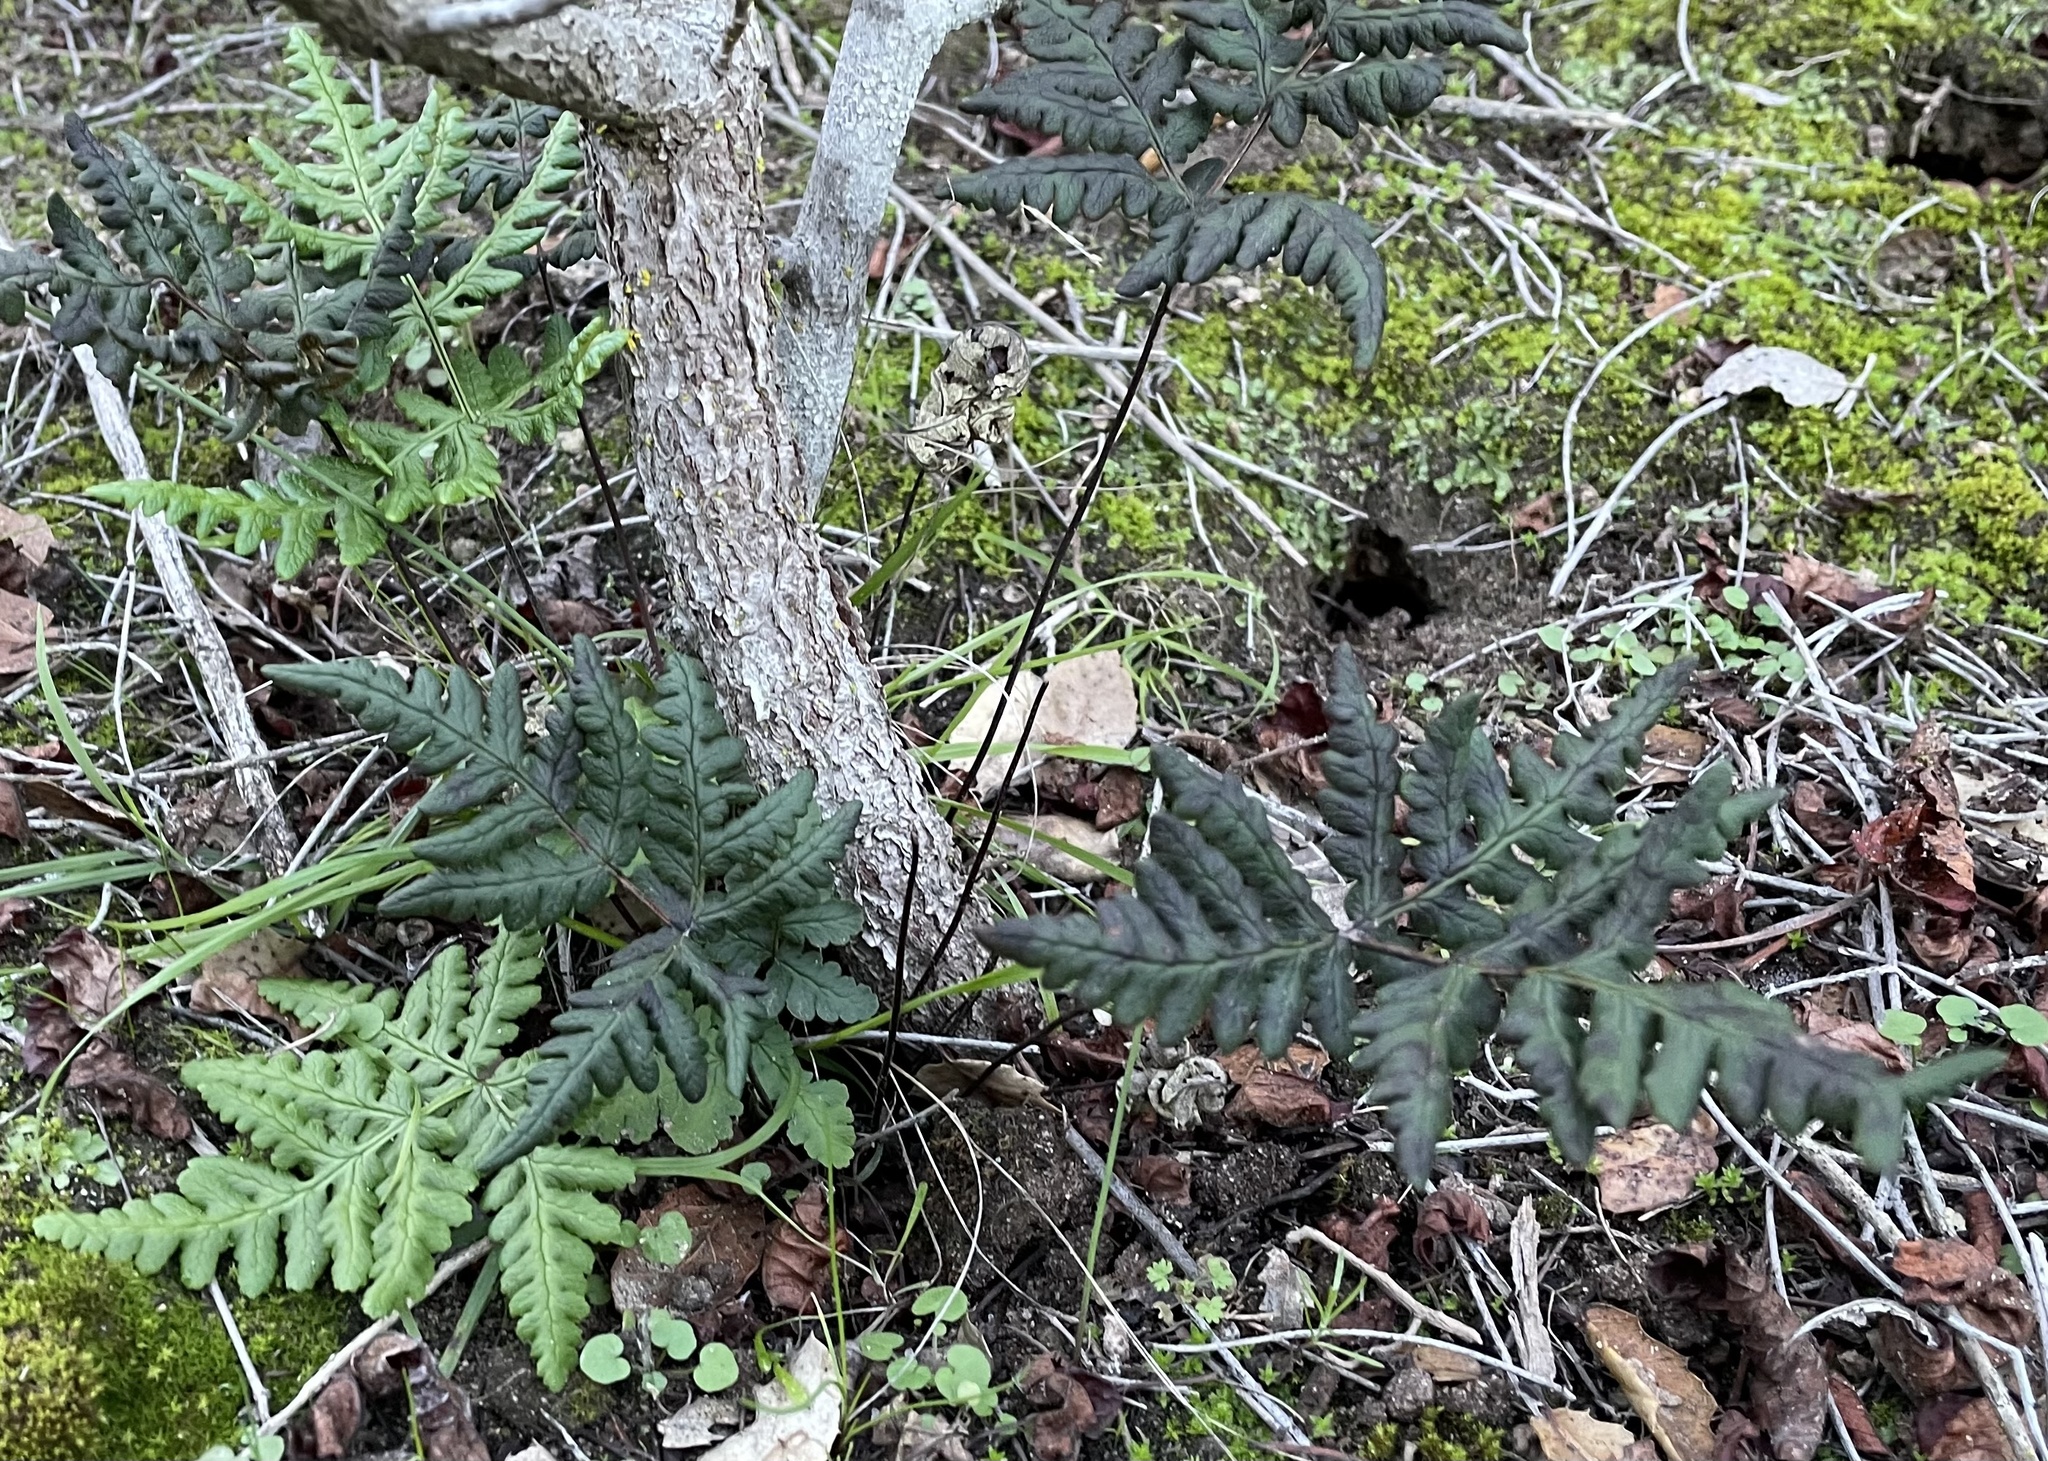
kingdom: Plantae
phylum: Tracheophyta
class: Polypodiopsida
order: Polypodiales
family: Pteridaceae
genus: Pentagramma
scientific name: Pentagramma triangularis
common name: Gold fern
